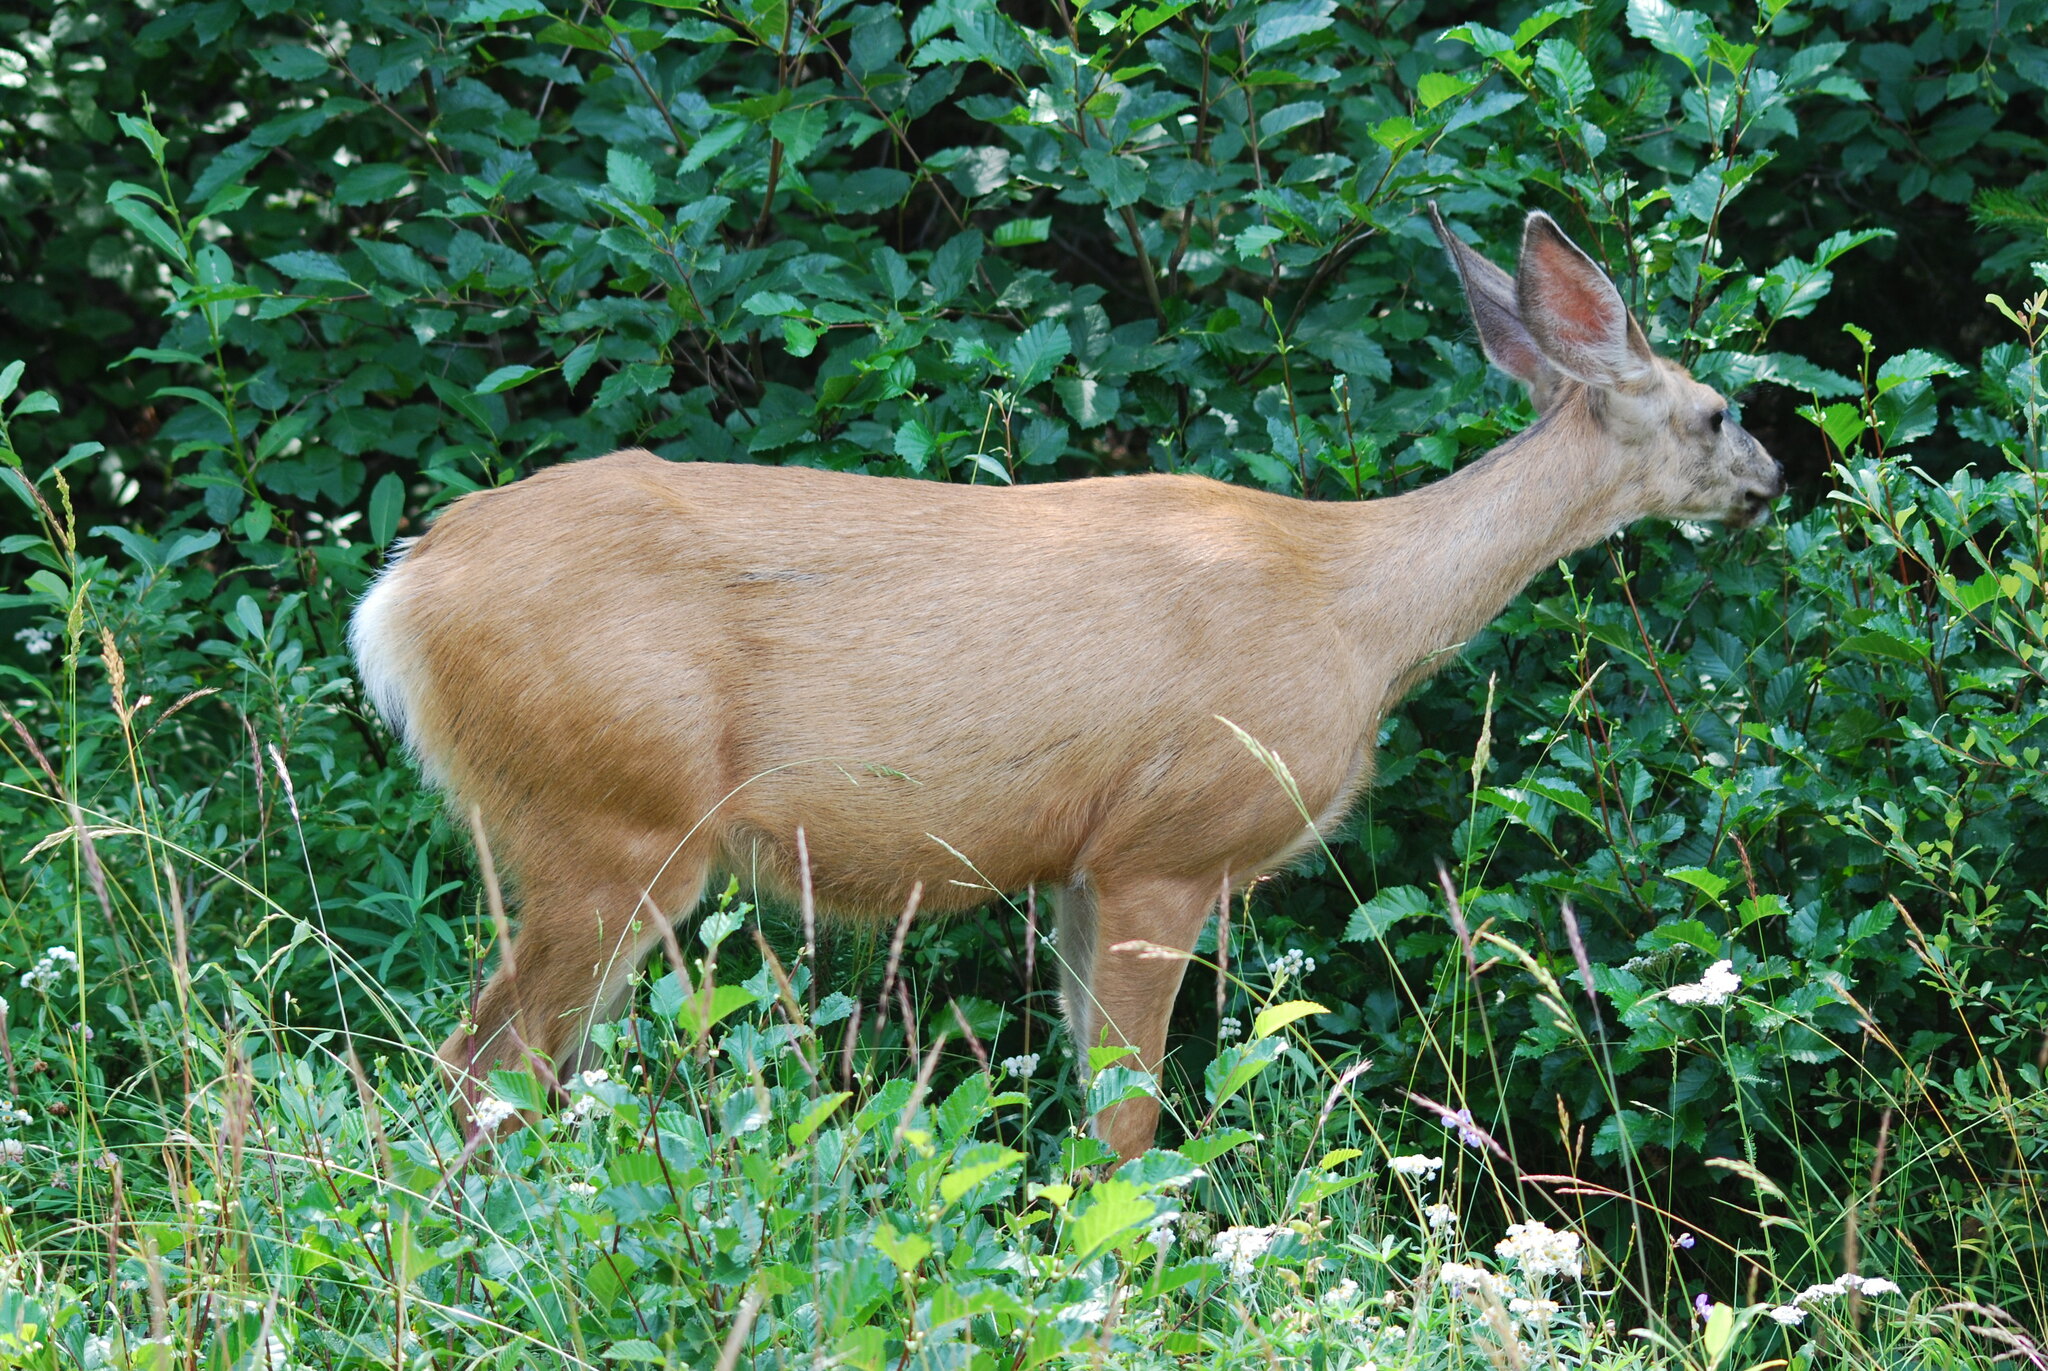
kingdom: Animalia
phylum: Chordata
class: Mammalia
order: Artiodactyla
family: Cervidae
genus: Odocoileus
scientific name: Odocoileus hemionus
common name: Mule deer
